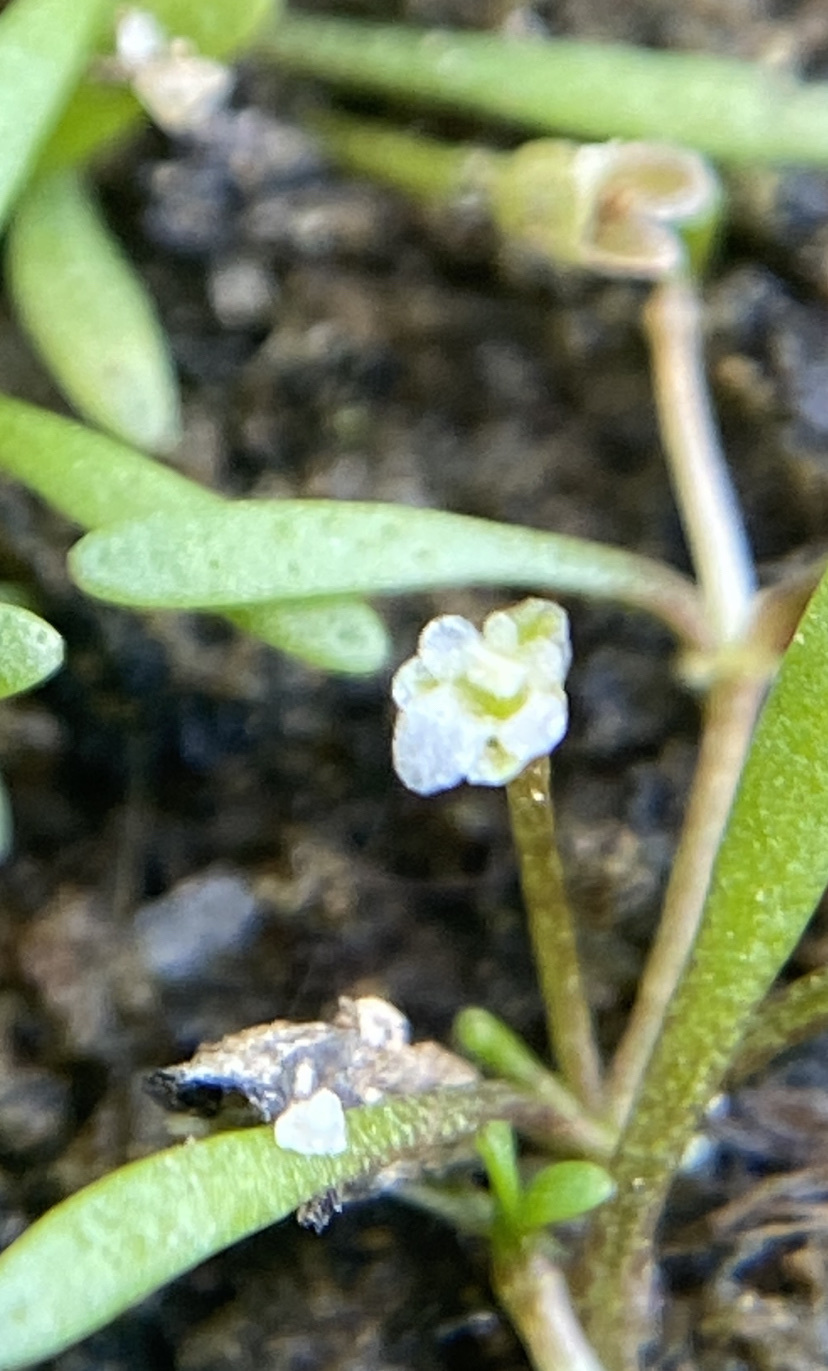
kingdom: Plantae
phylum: Tracheophyta
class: Magnoliopsida
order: Lamiales
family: Phrymaceae
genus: Glossostigma
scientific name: Glossostigma cleistanthum
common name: Mudmats
